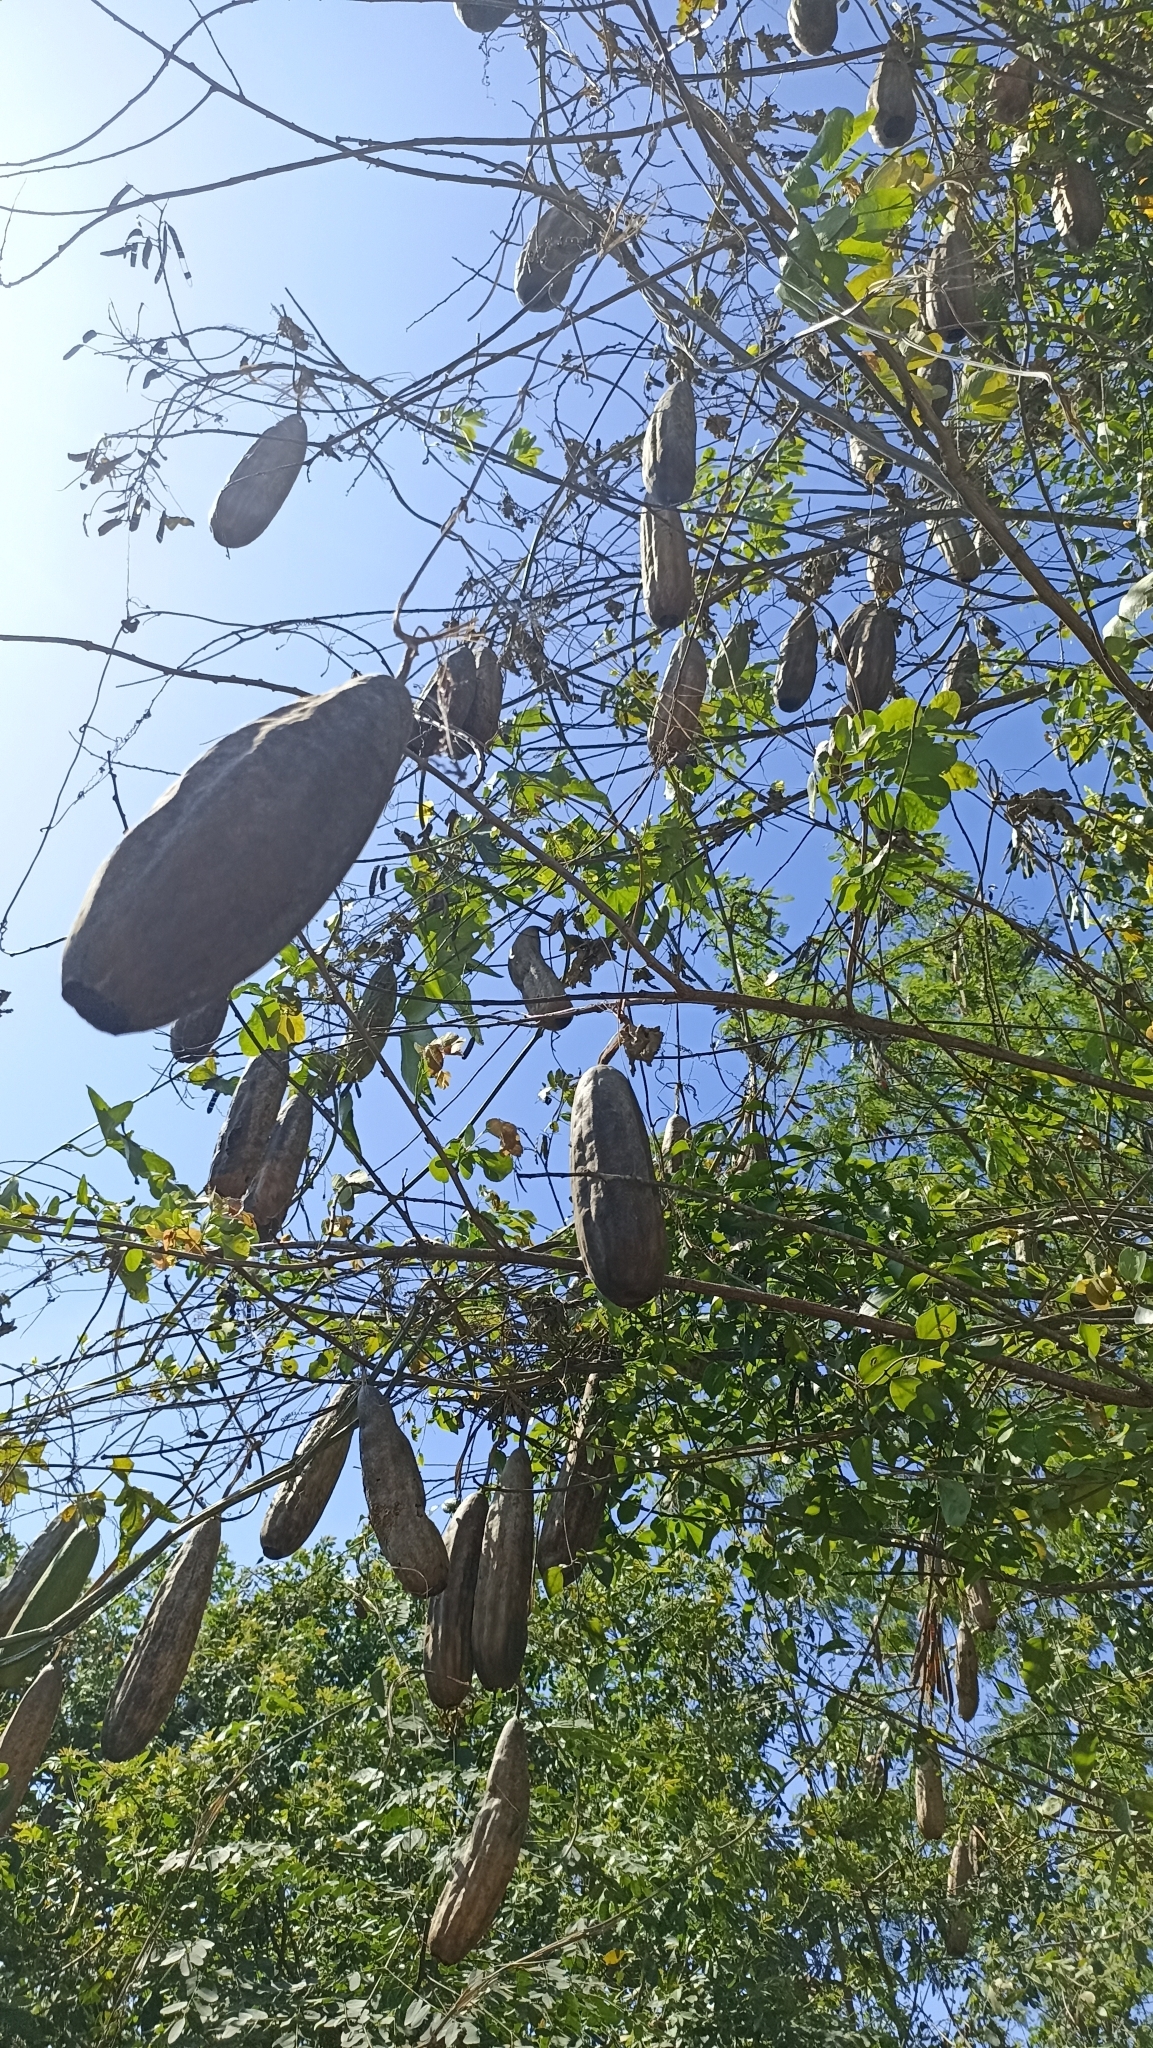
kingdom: Plantae
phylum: Tracheophyta
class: Magnoliopsida
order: Cucurbitales
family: Cucurbitaceae
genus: Luffa
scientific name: Luffa aegyptiaca
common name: Sponge gourd
